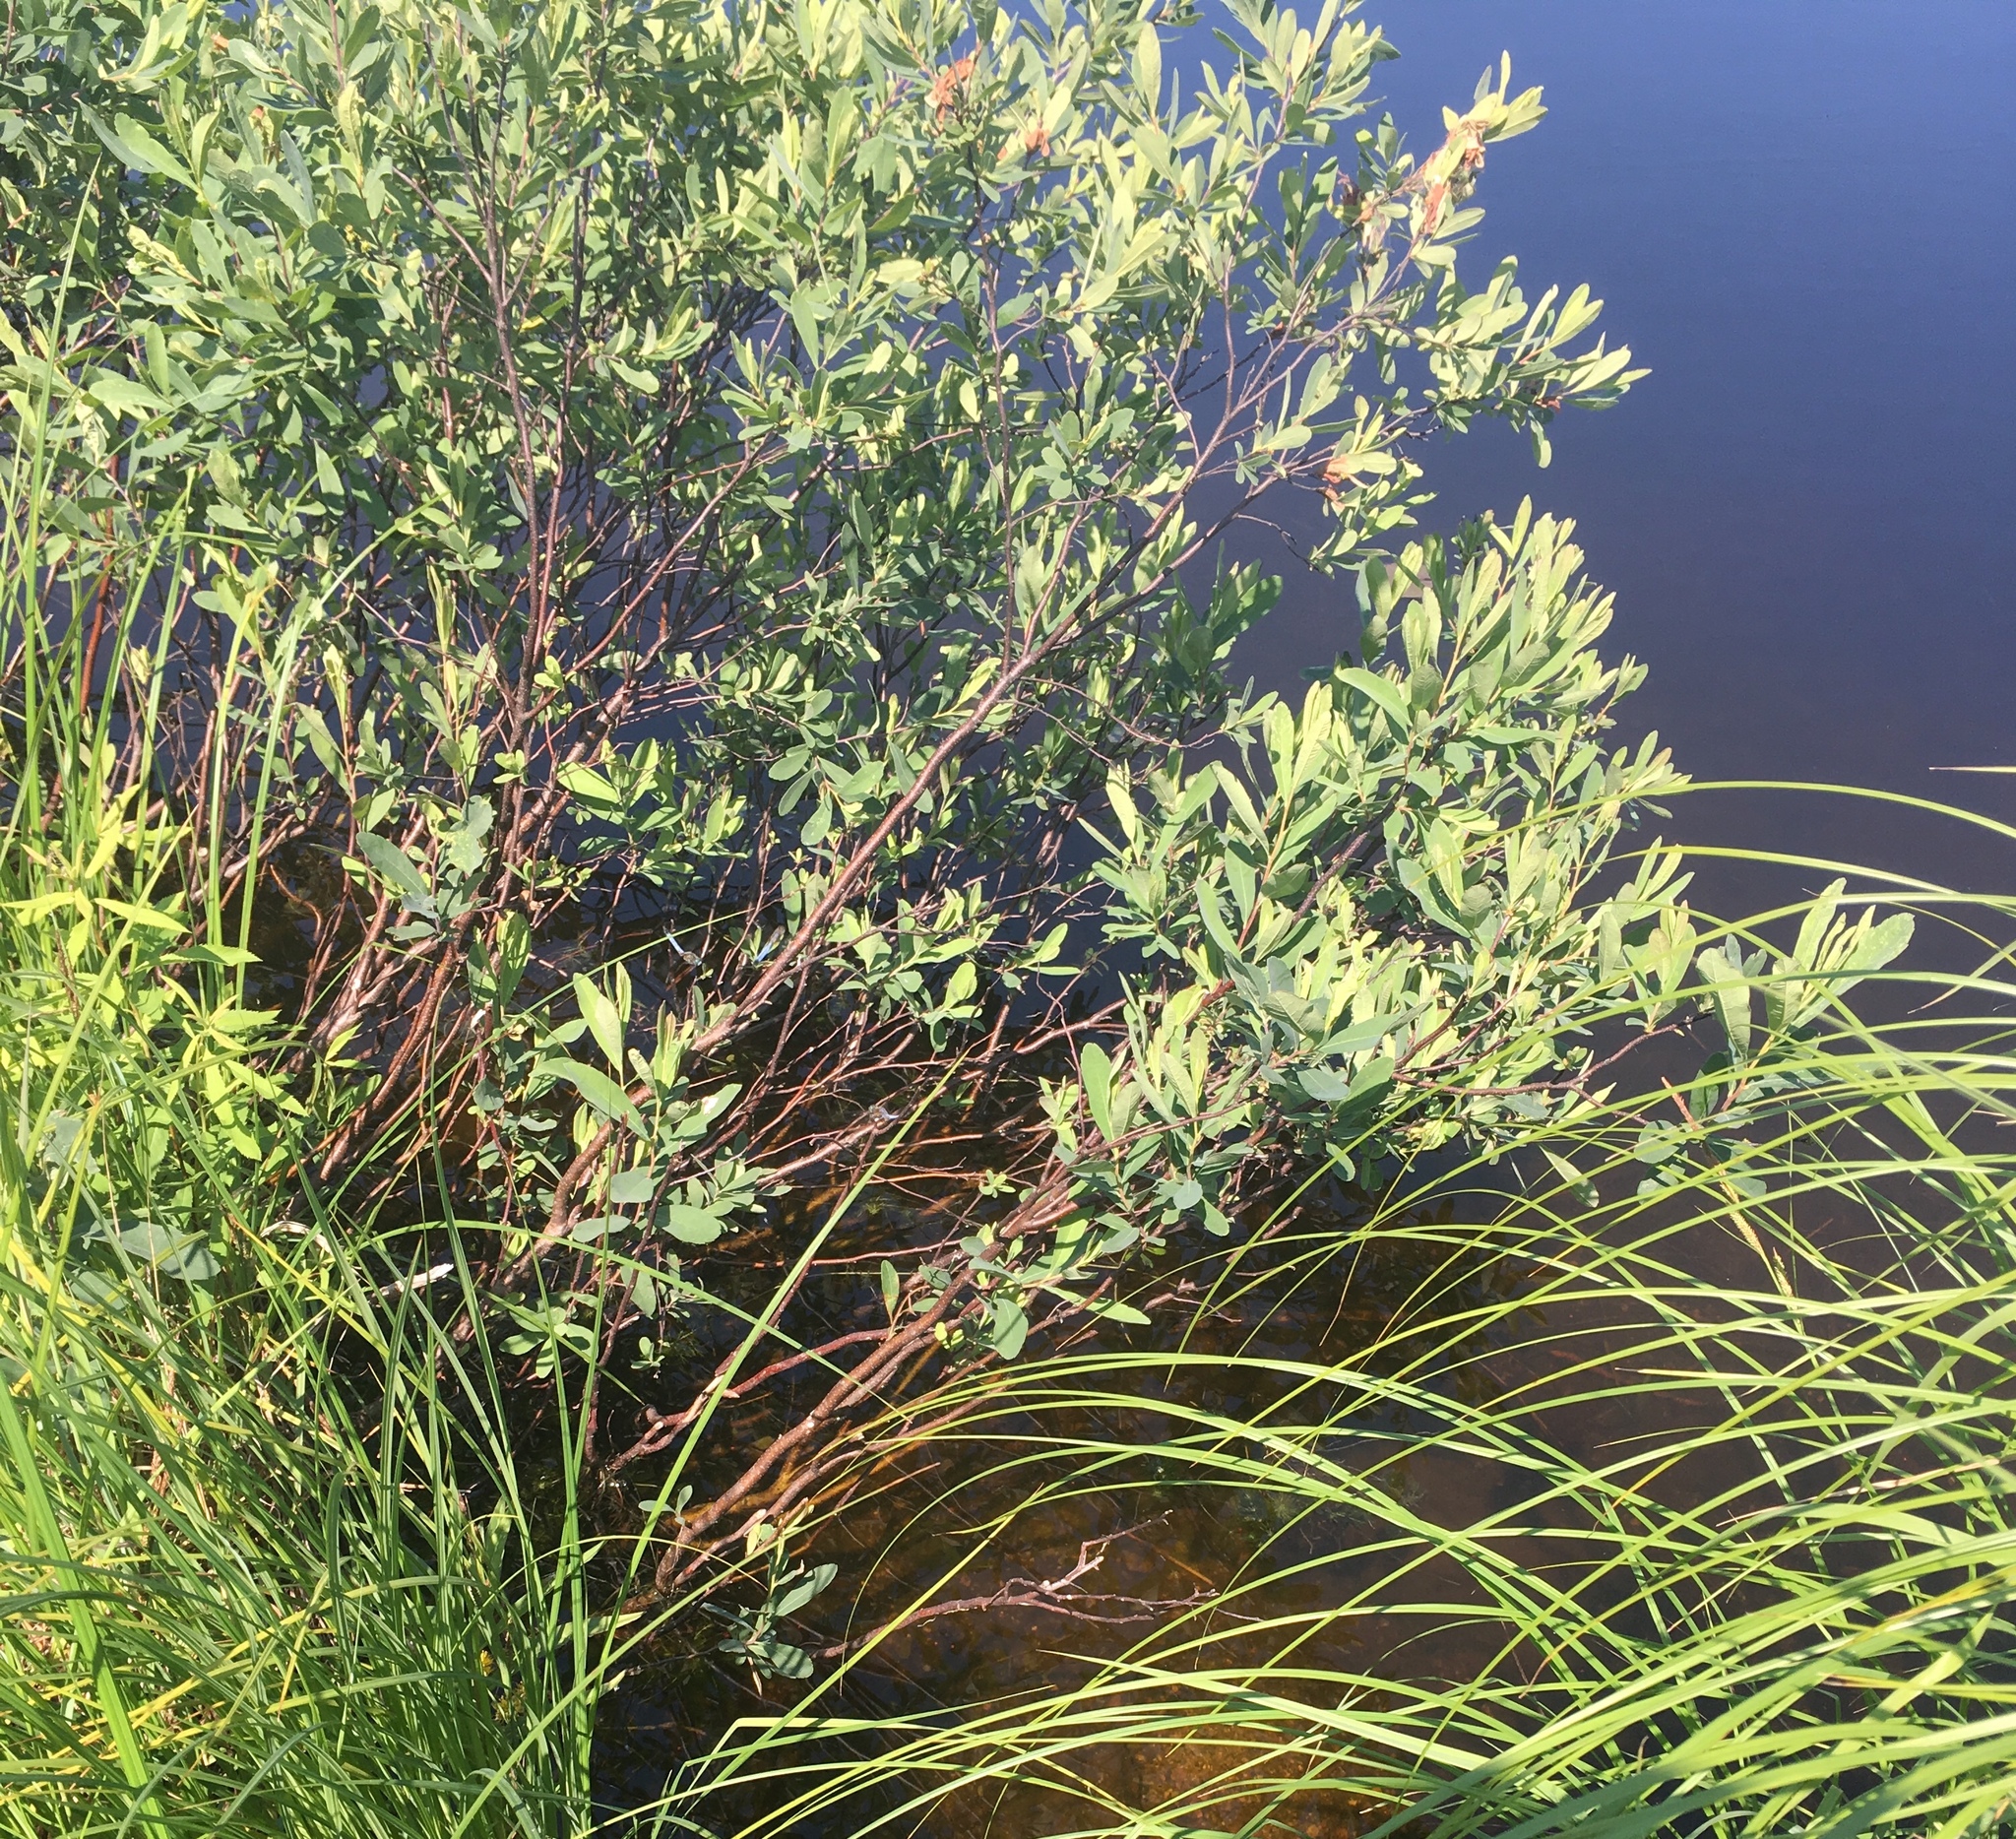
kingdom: Plantae
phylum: Tracheophyta
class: Magnoliopsida
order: Fagales
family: Myricaceae
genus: Myrica
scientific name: Myrica gale
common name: Sweet gale
